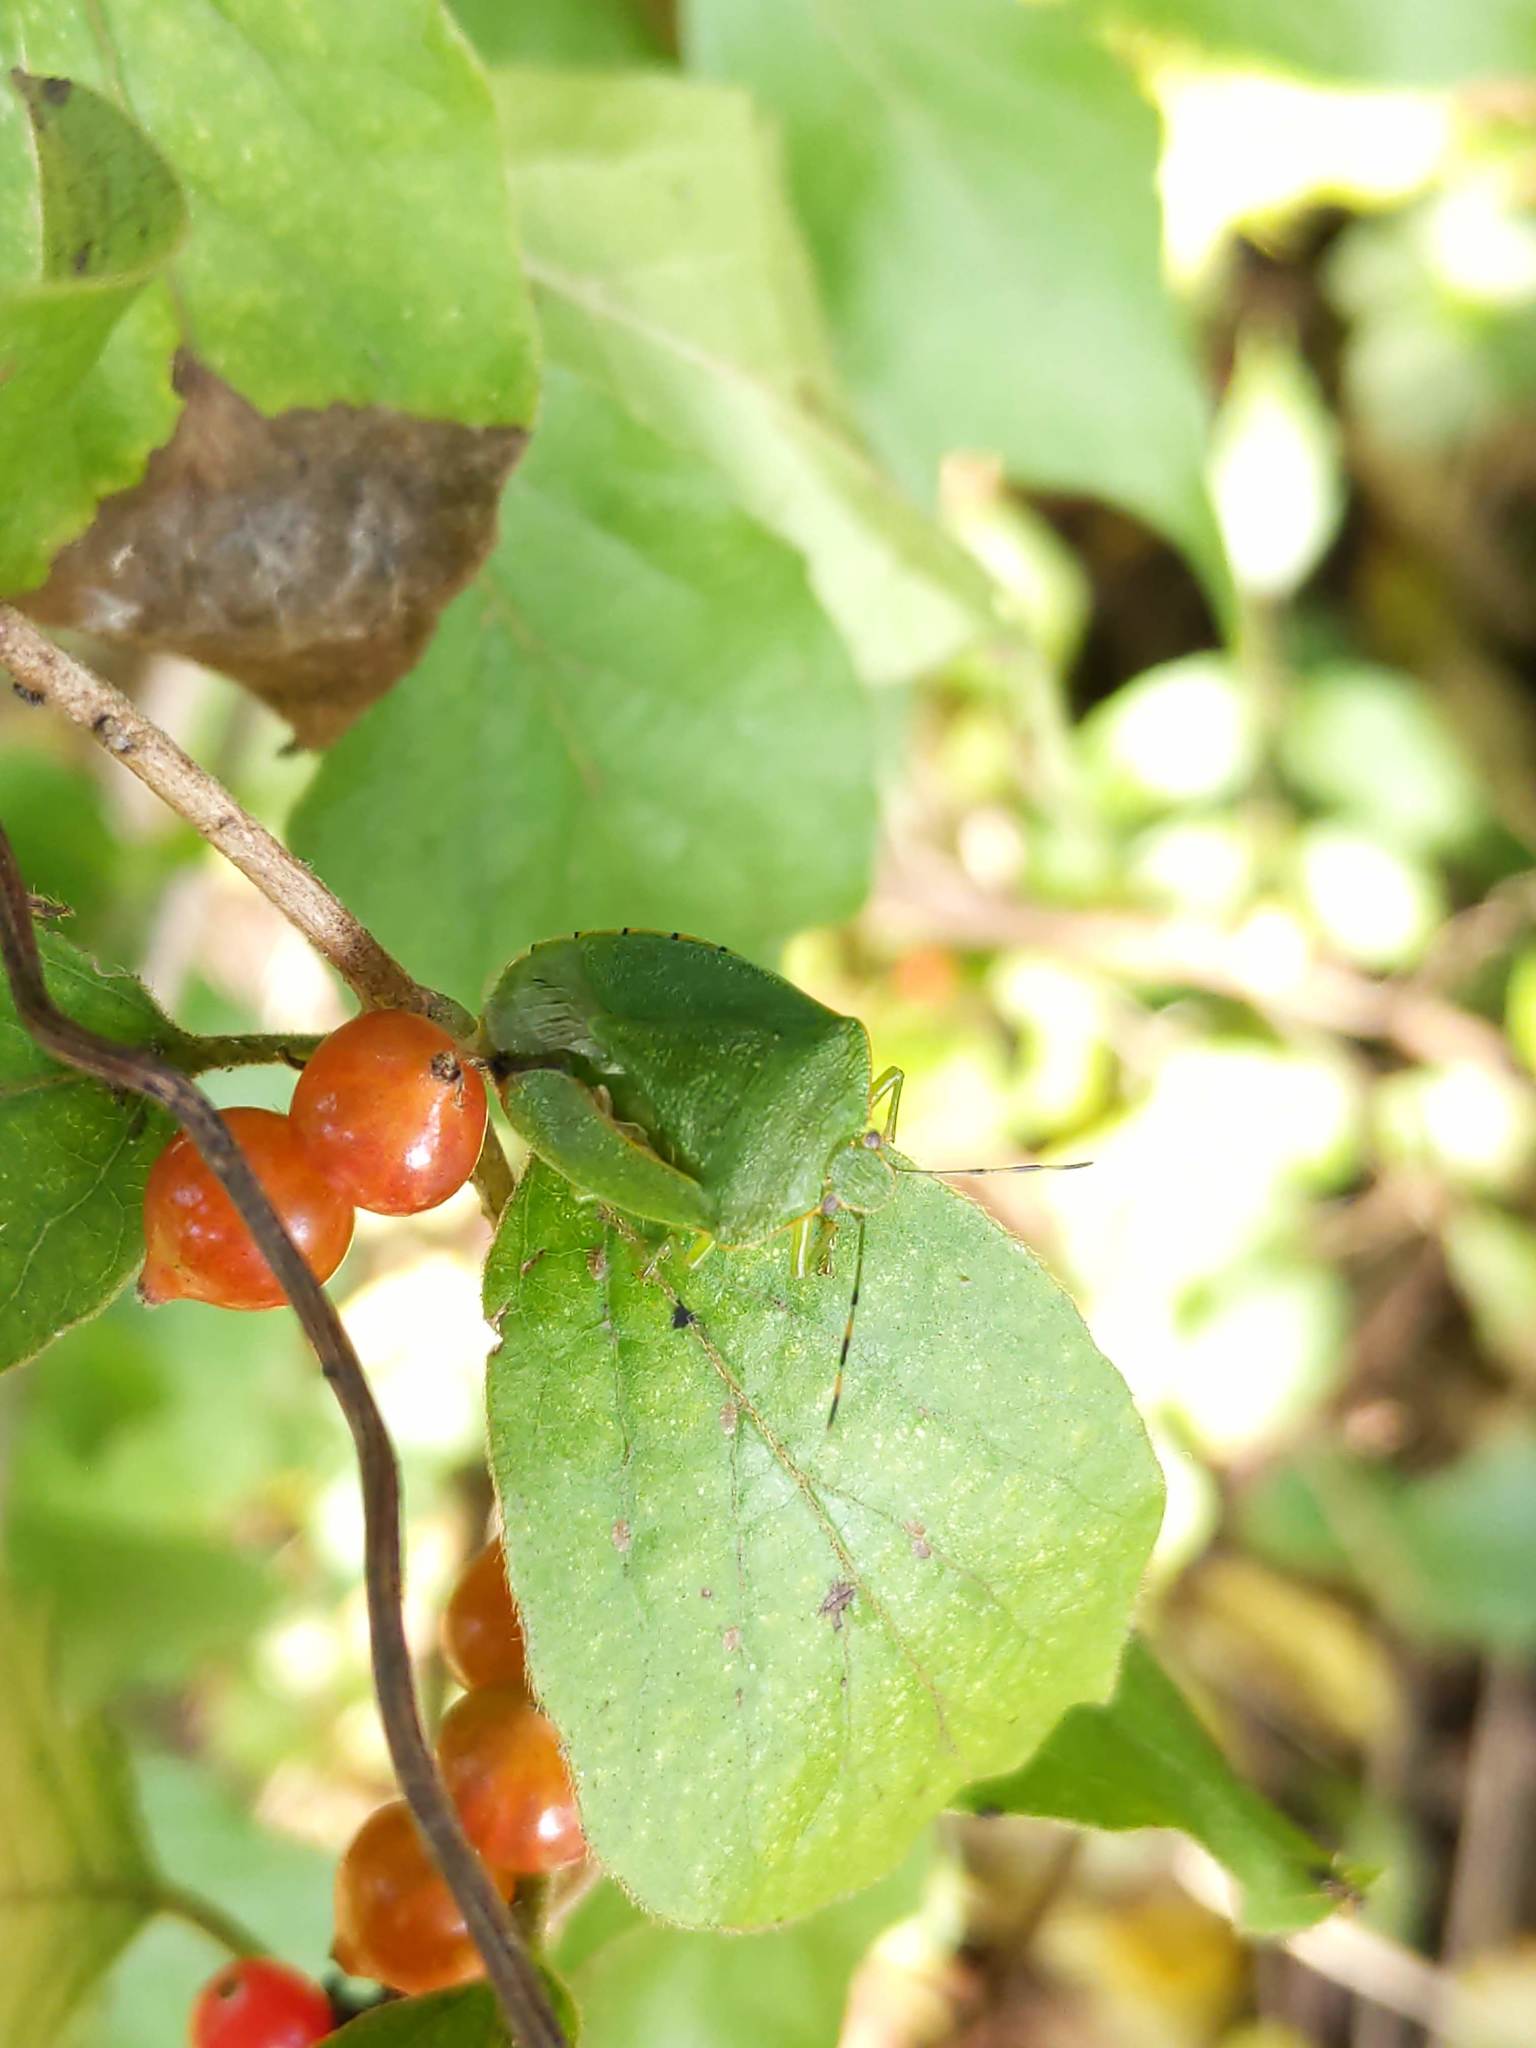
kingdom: Animalia
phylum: Arthropoda
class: Insecta
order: Hemiptera
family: Pentatomidae
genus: Chinavia
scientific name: Chinavia hilaris
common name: Green stink bug
